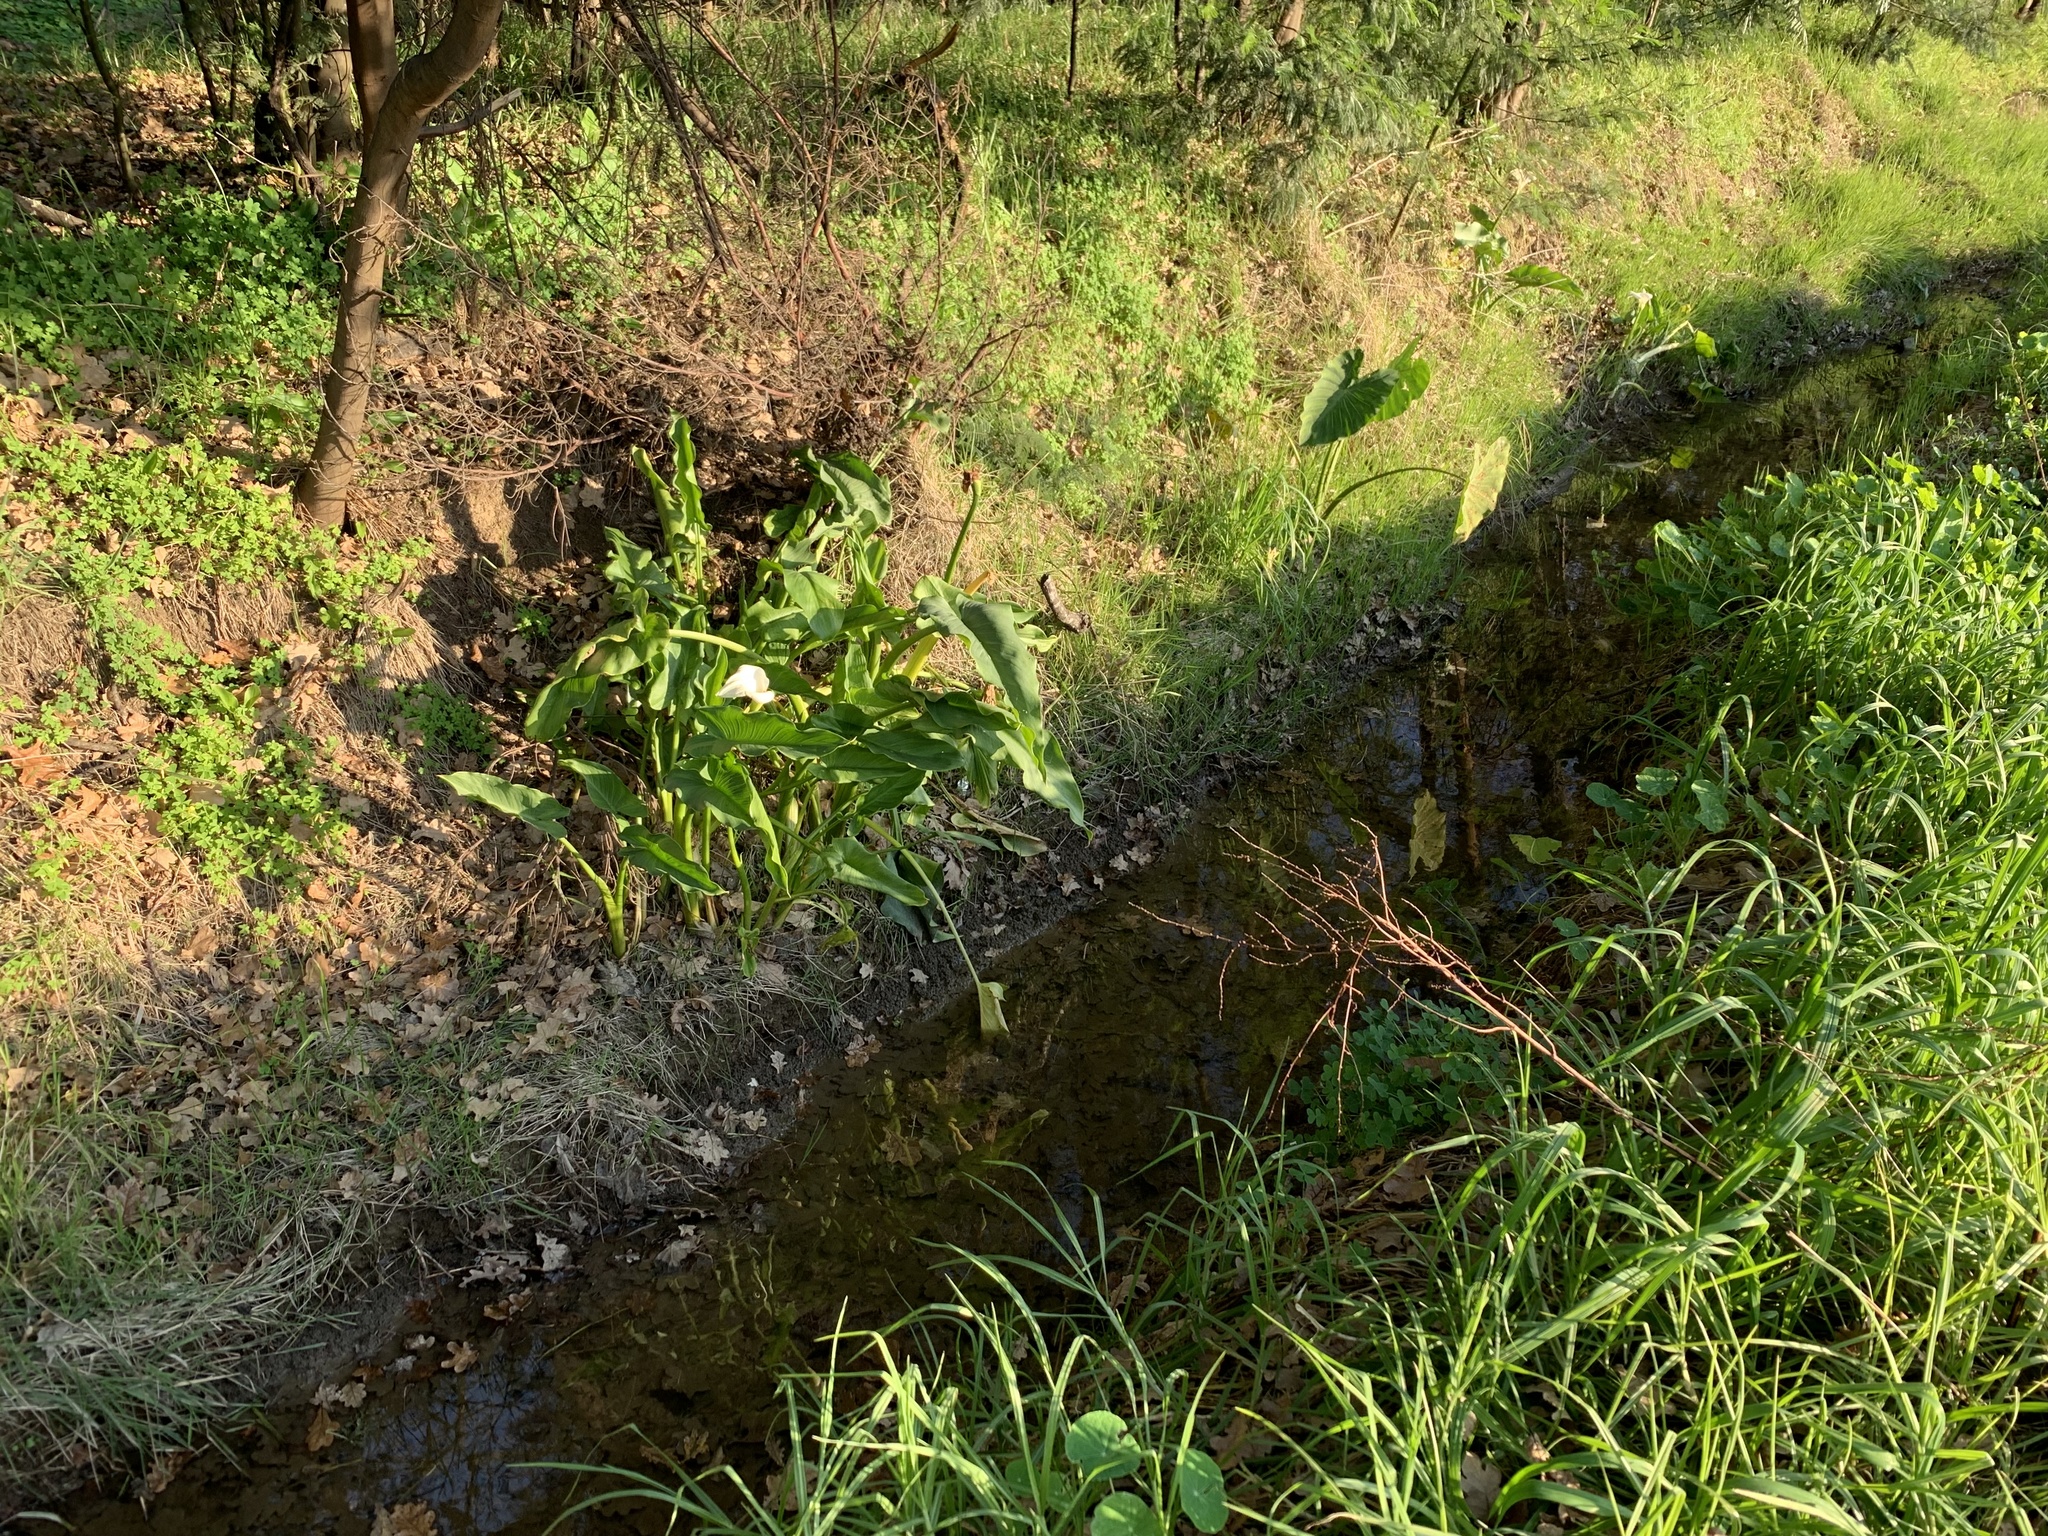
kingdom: Plantae
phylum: Tracheophyta
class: Liliopsida
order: Alismatales
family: Araceae
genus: Zantedeschia
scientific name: Zantedeschia aethiopica
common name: Altar-lily
